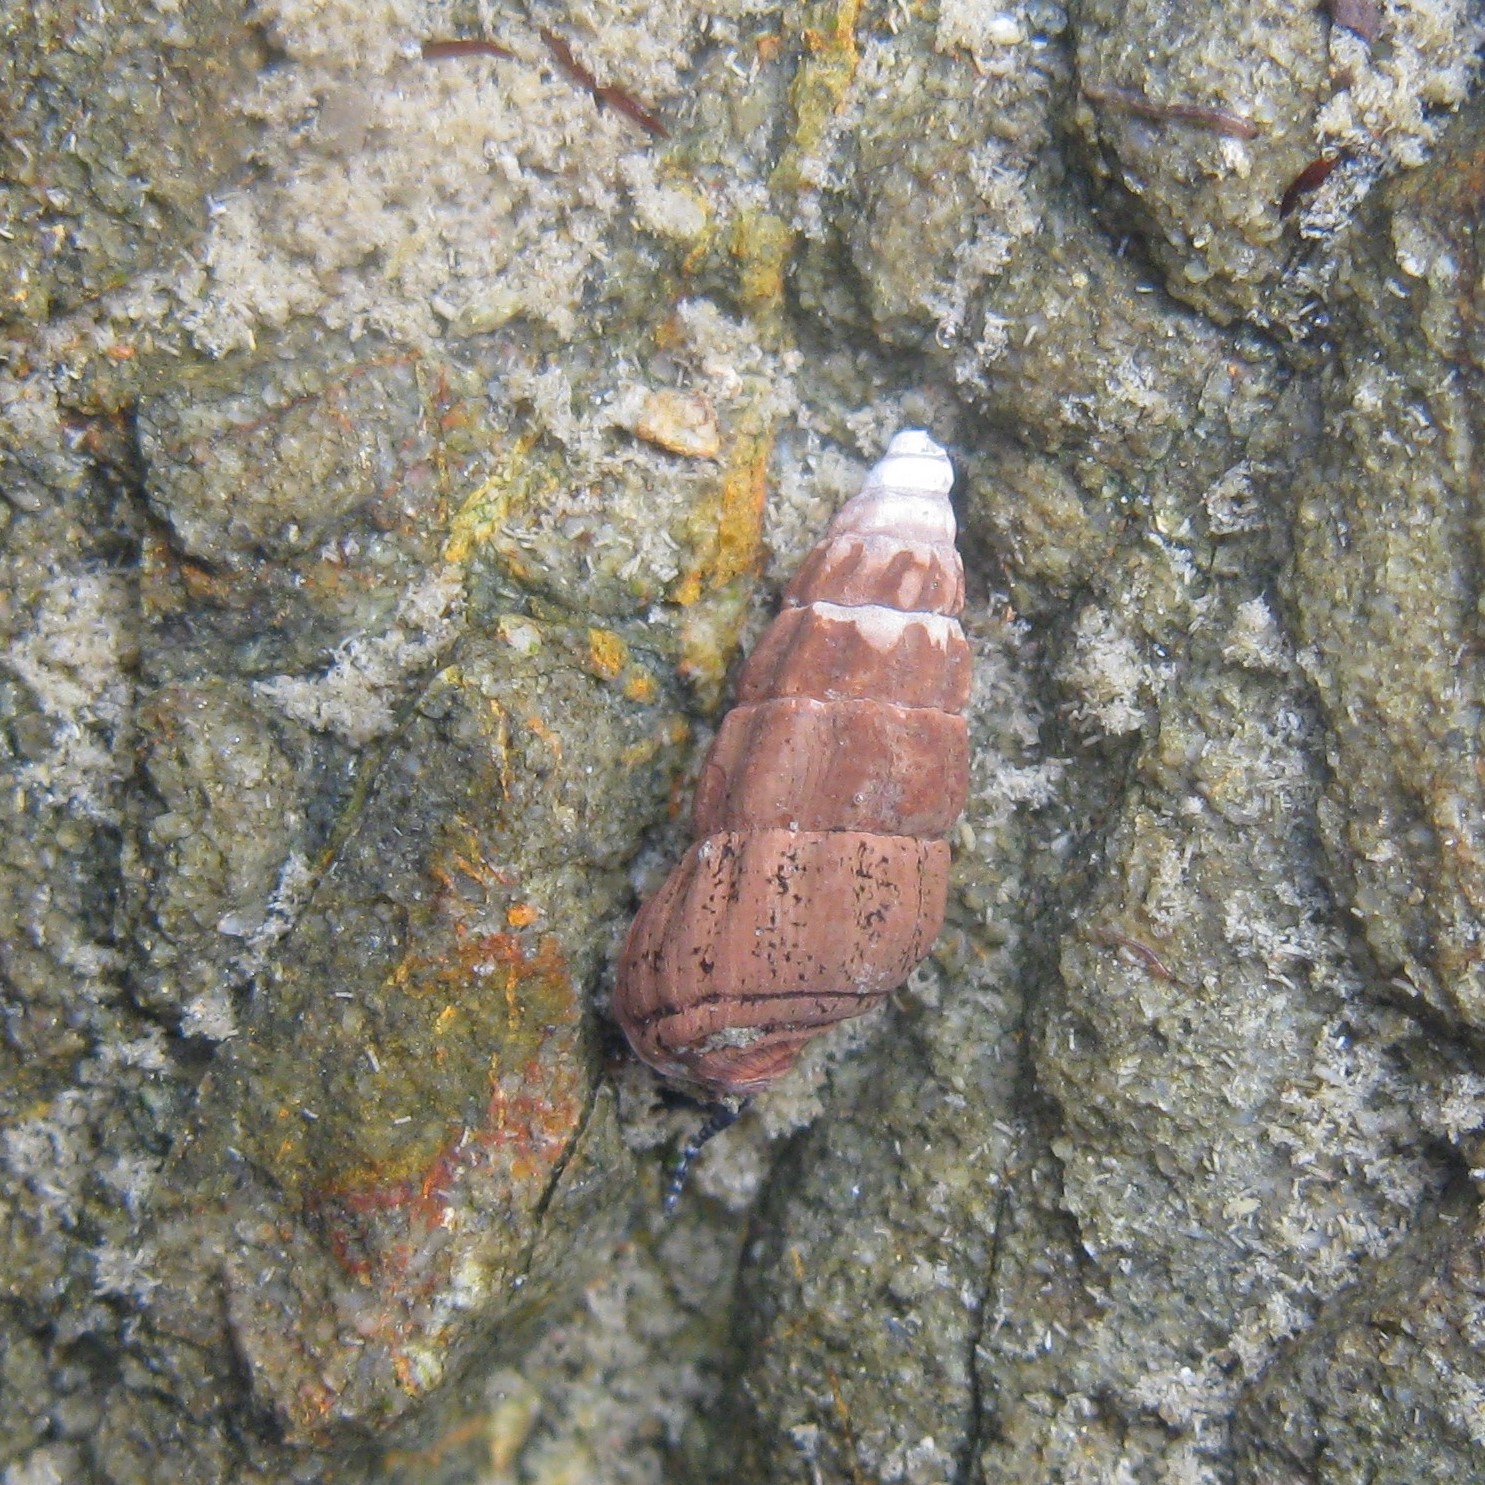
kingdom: Animalia
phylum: Mollusca
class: Gastropoda
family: Batillariidae
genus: Zeacumantus
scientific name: Zeacumantus subcarinatus
